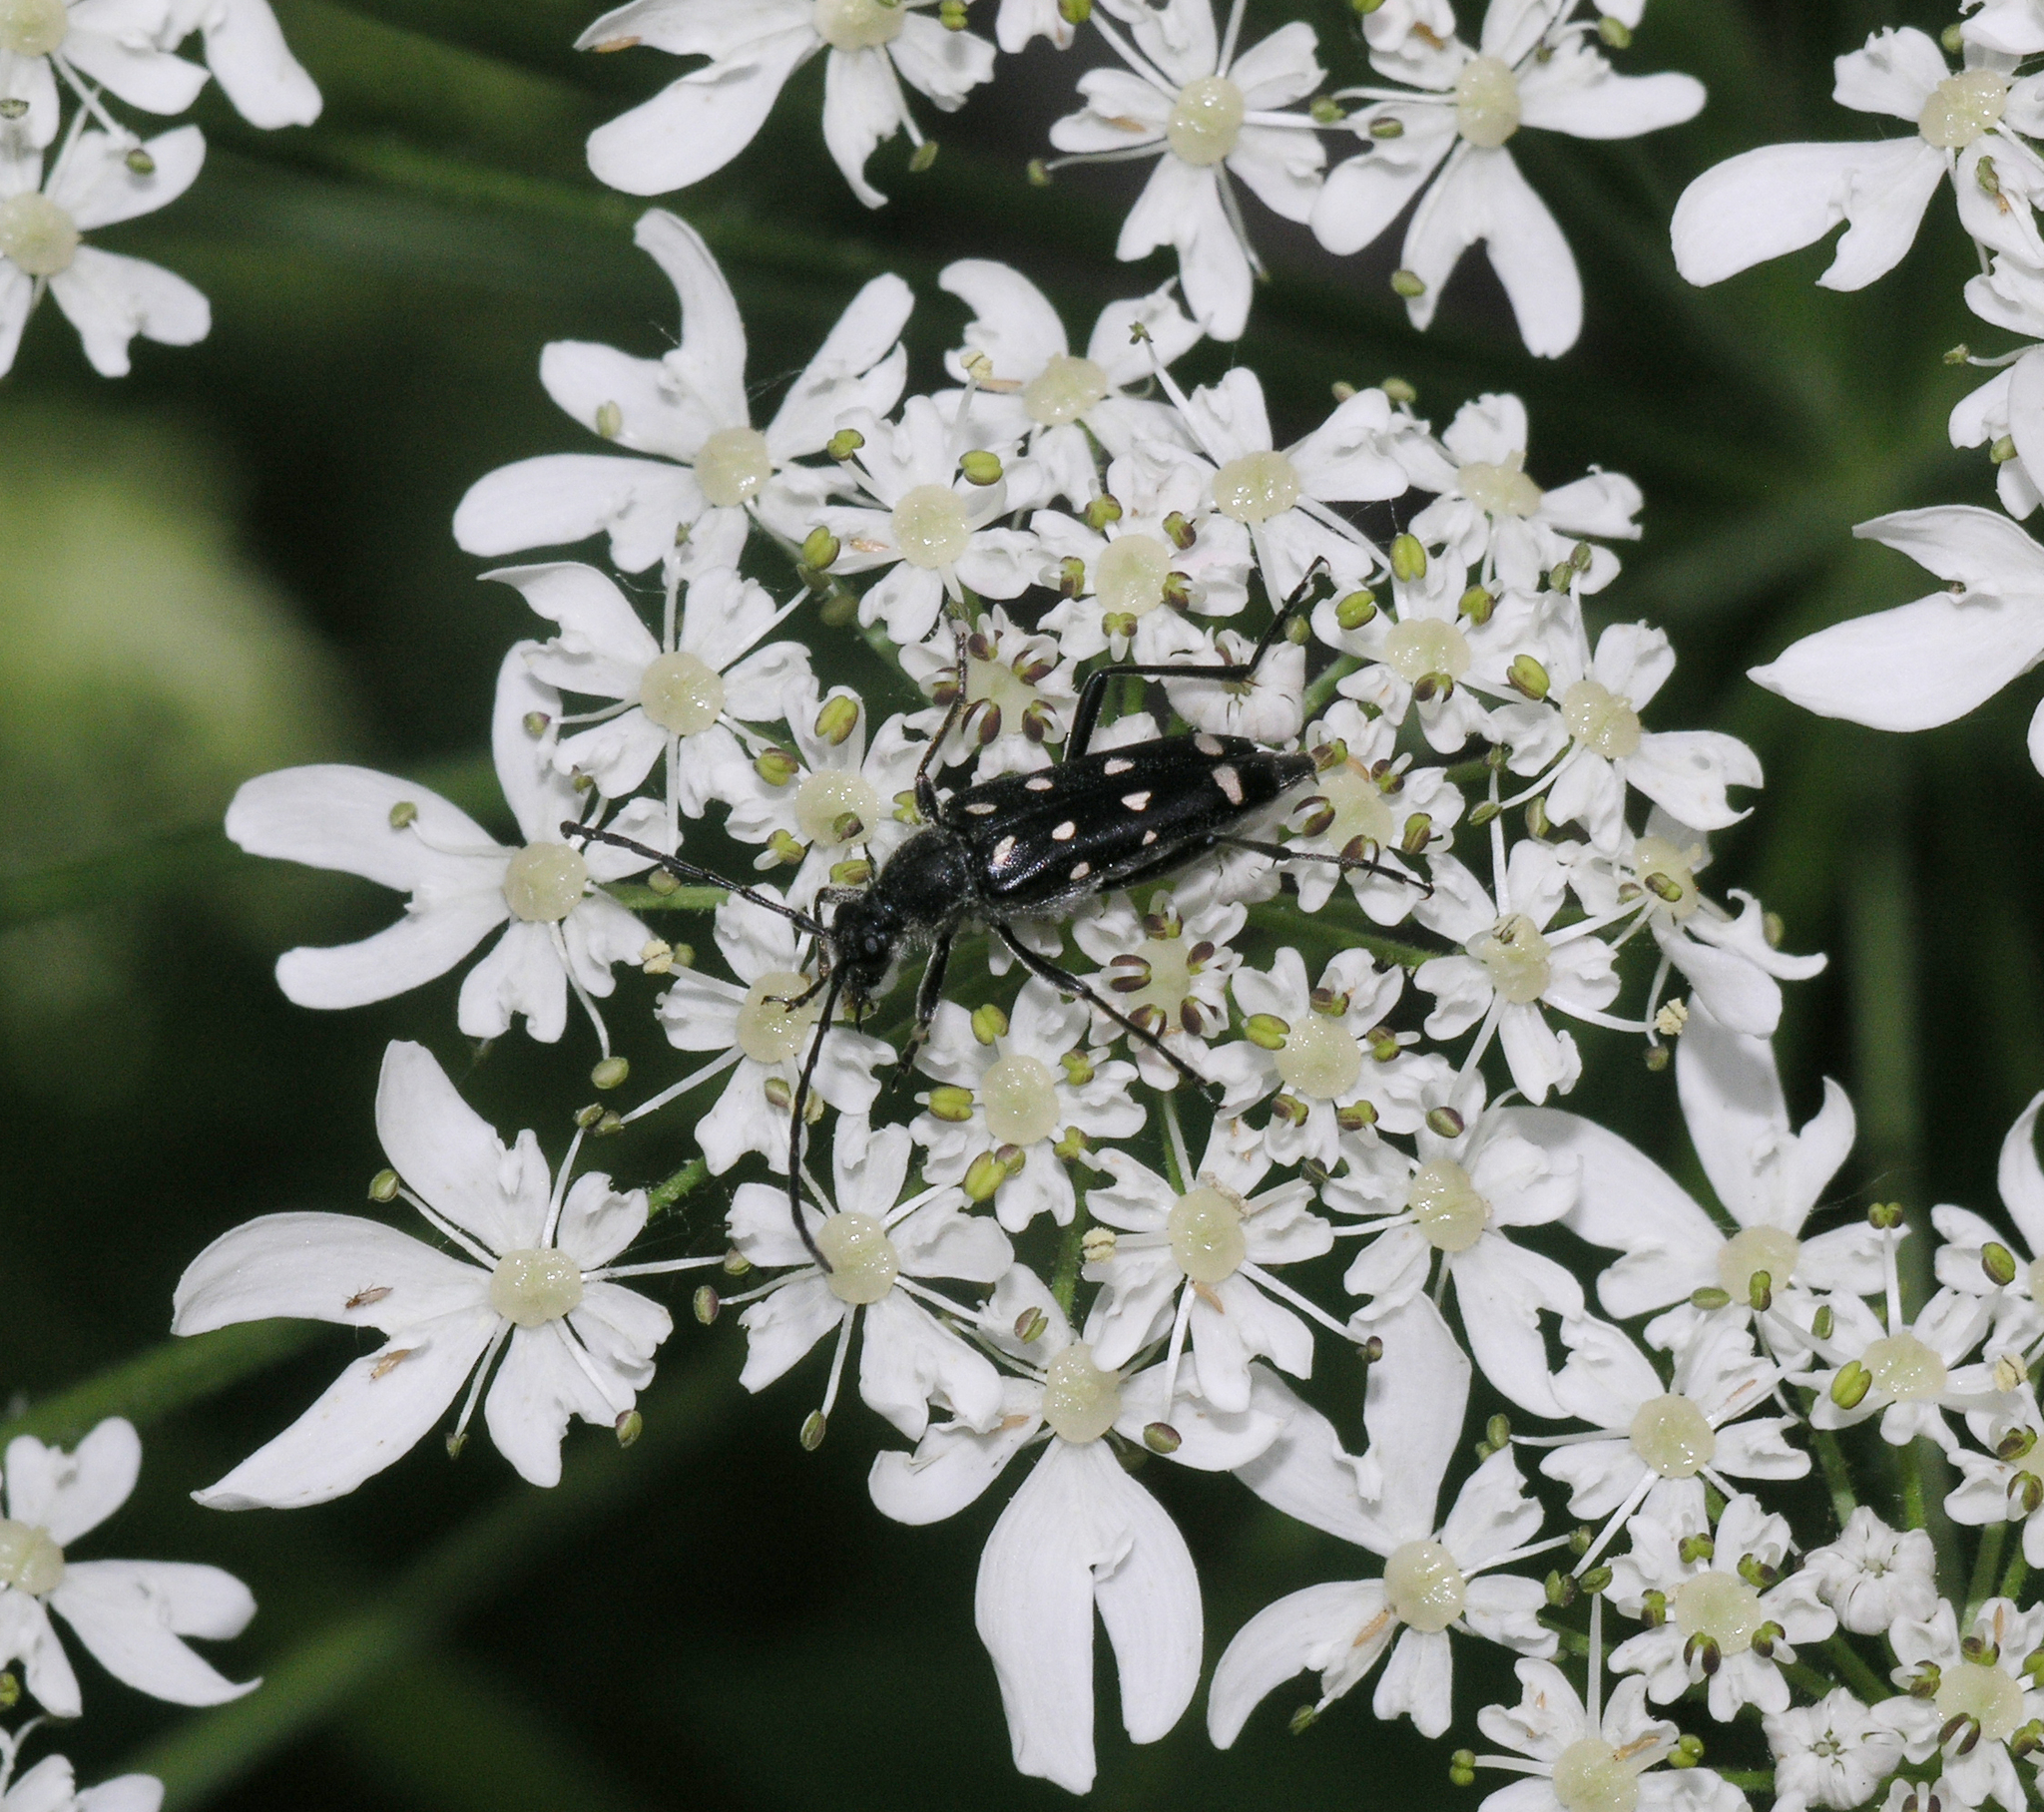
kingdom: Animalia
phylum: Arthropoda
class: Insecta
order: Coleoptera
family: Cerambycidae
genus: Leptura
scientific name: Leptura duodecimguttata
